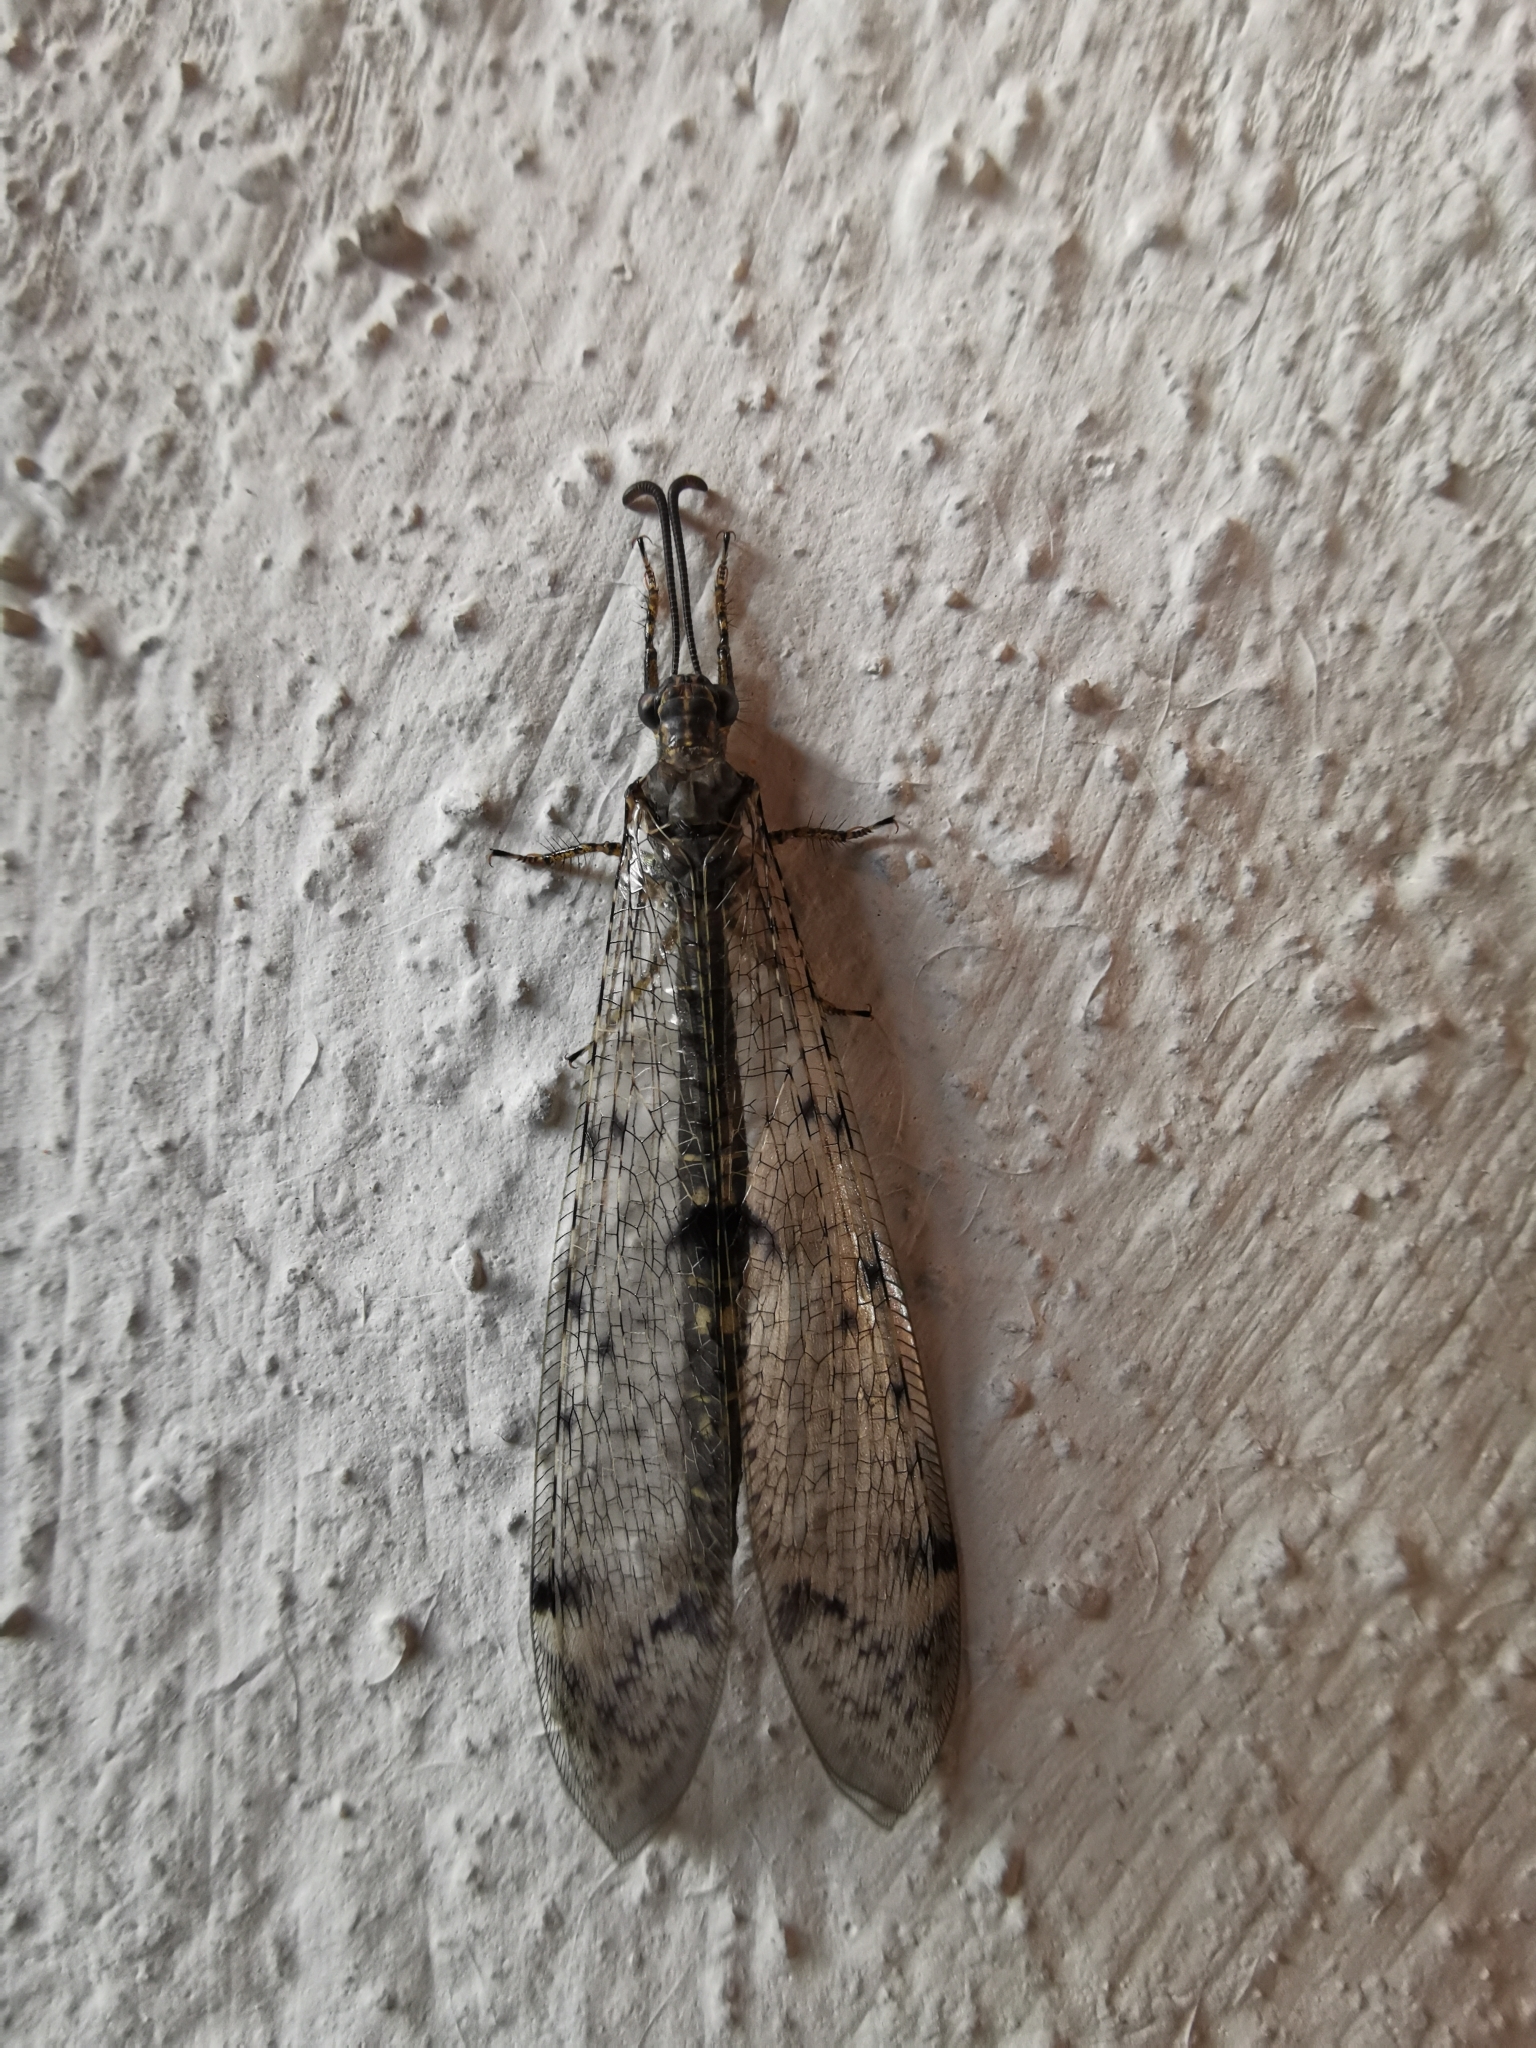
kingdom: Animalia
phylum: Arthropoda
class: Insecta
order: Neuroptera
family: Myrmeleontidae
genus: Distoleon
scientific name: Distoleon tetragrammicus
